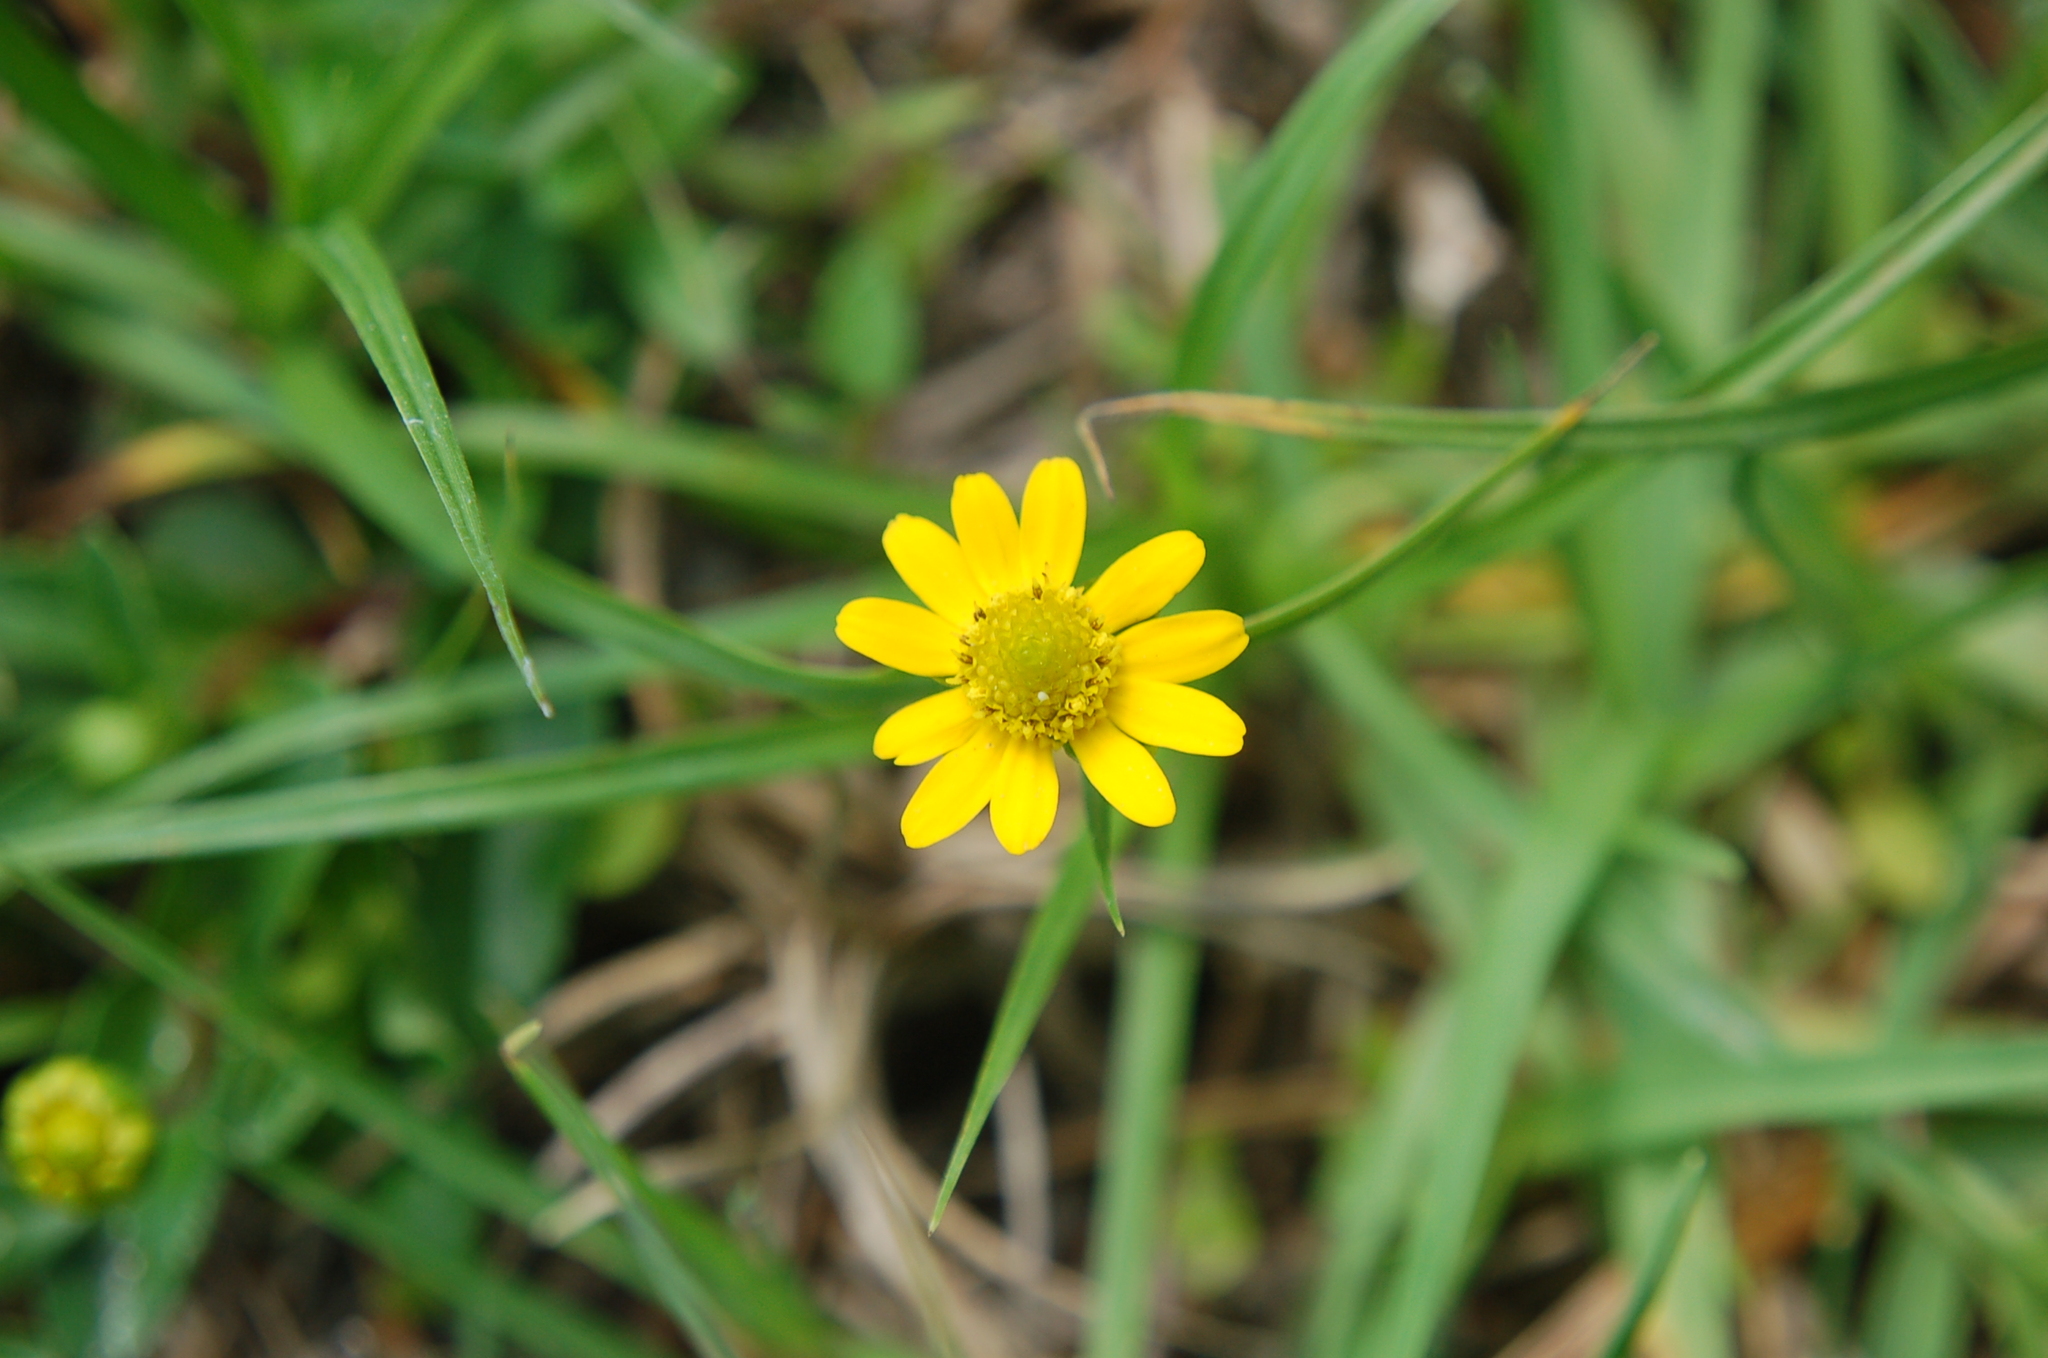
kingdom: Plantae
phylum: Tracheophyta
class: Magnoliopsida
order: Asterales
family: Asteraceae
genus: Melampodium
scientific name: Melampodium montanum
